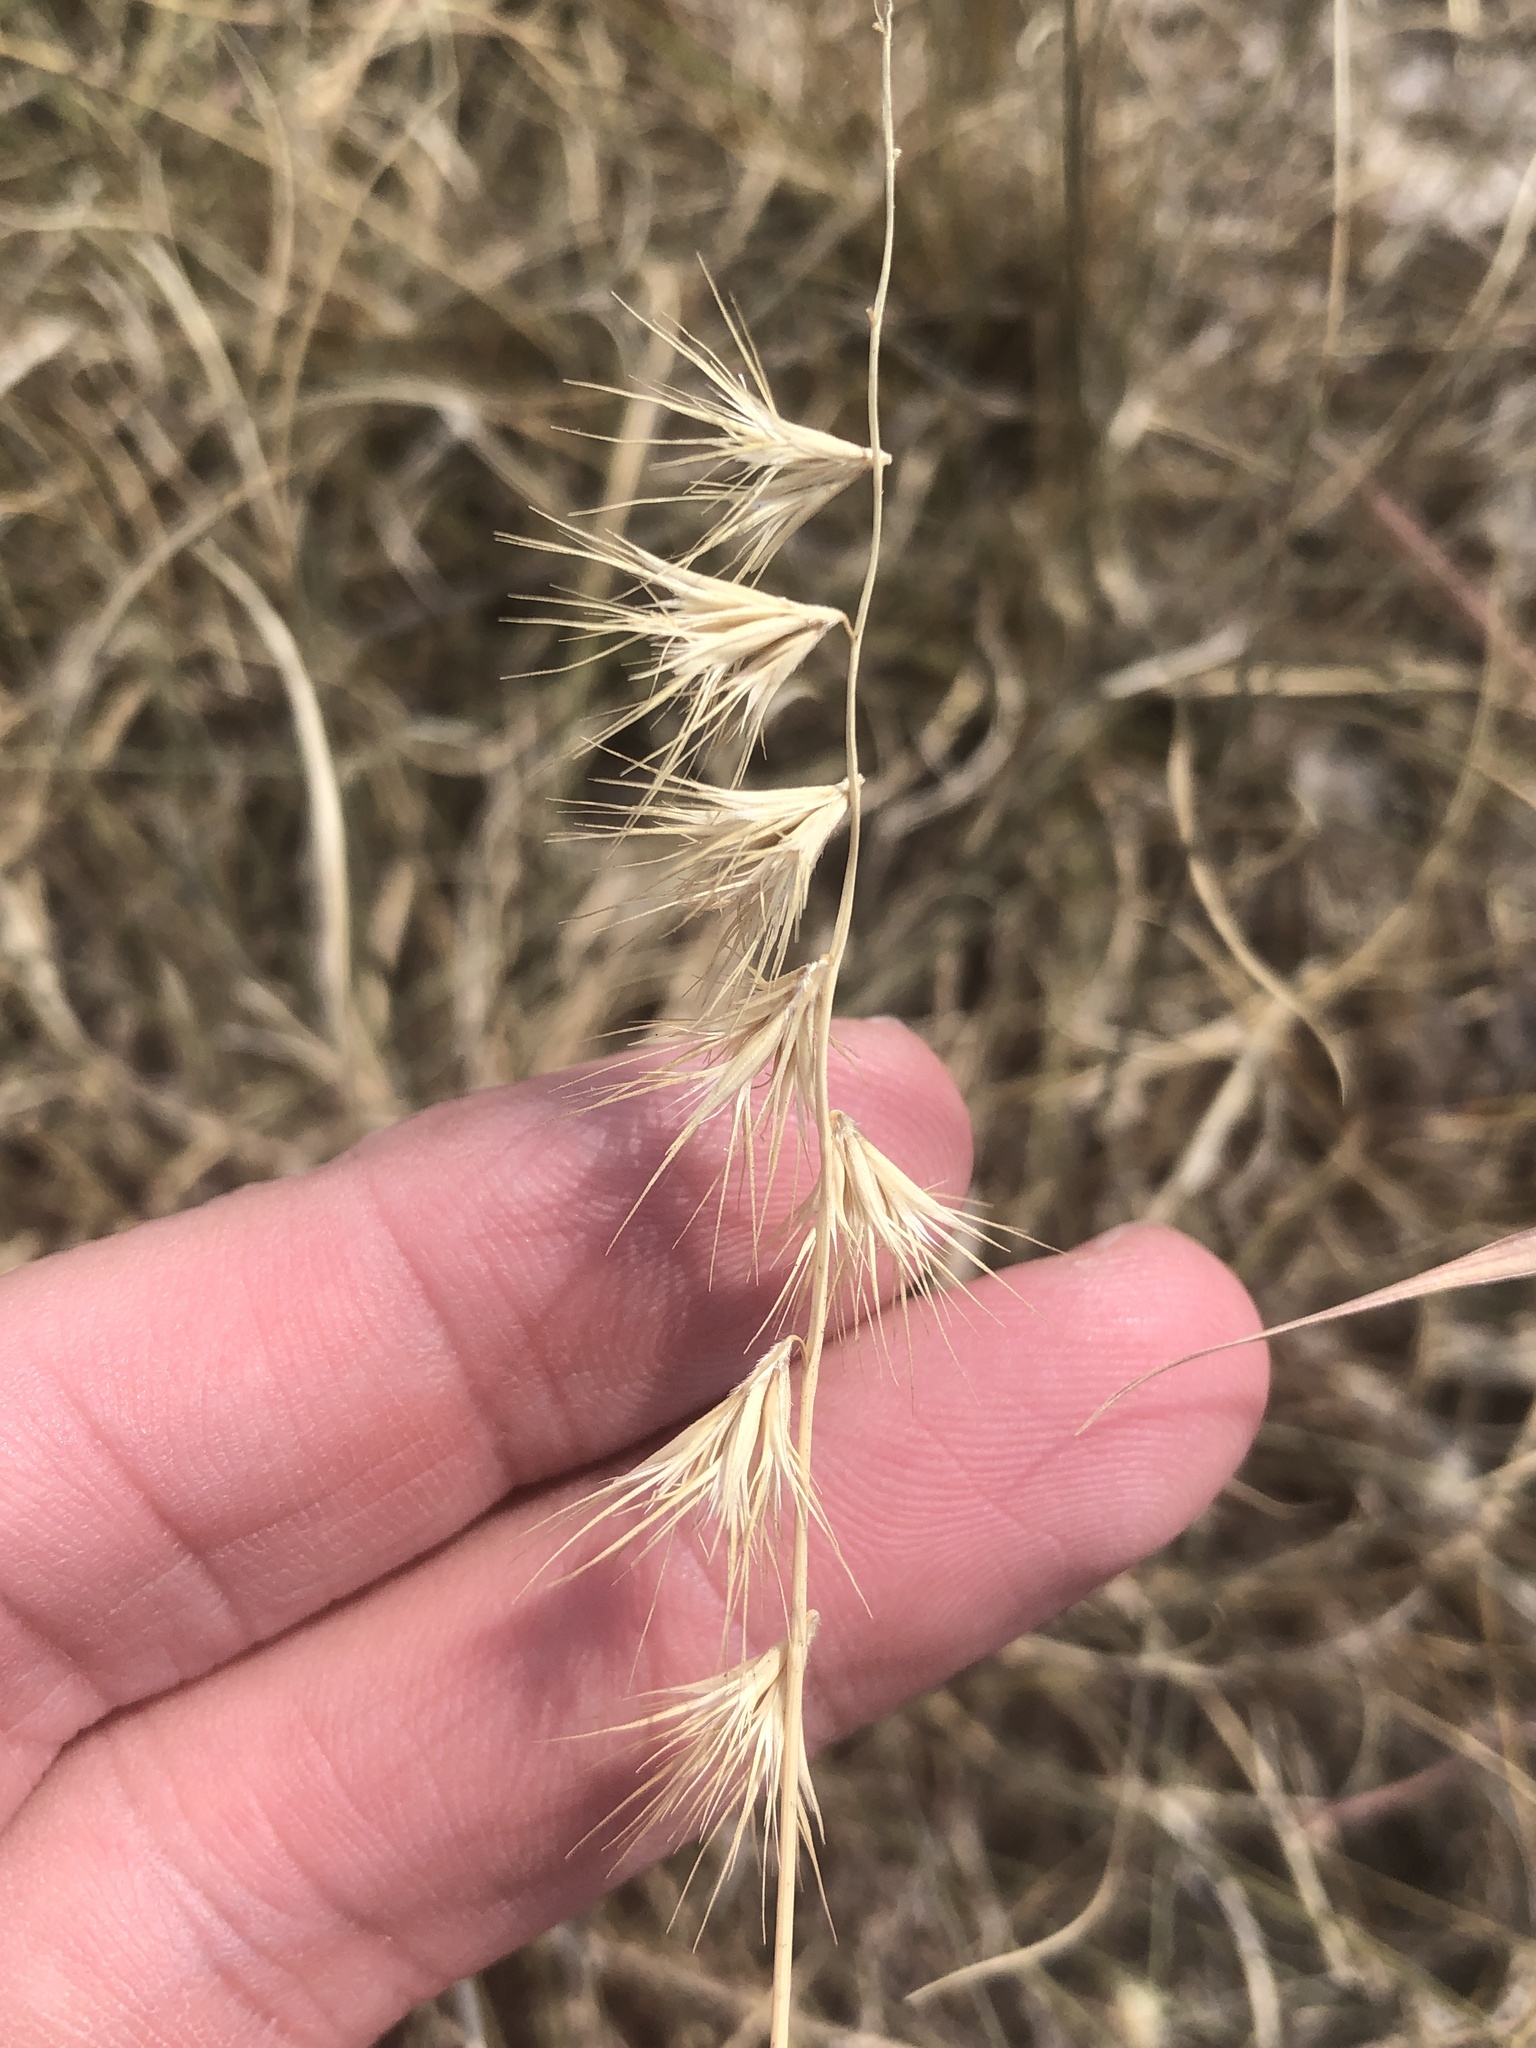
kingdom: Plantae
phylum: Tracheophyta
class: Liliopsida
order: Poales
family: Poaceae
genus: Bouteloua
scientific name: Bouteloua rigidiseta
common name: Texas grama
